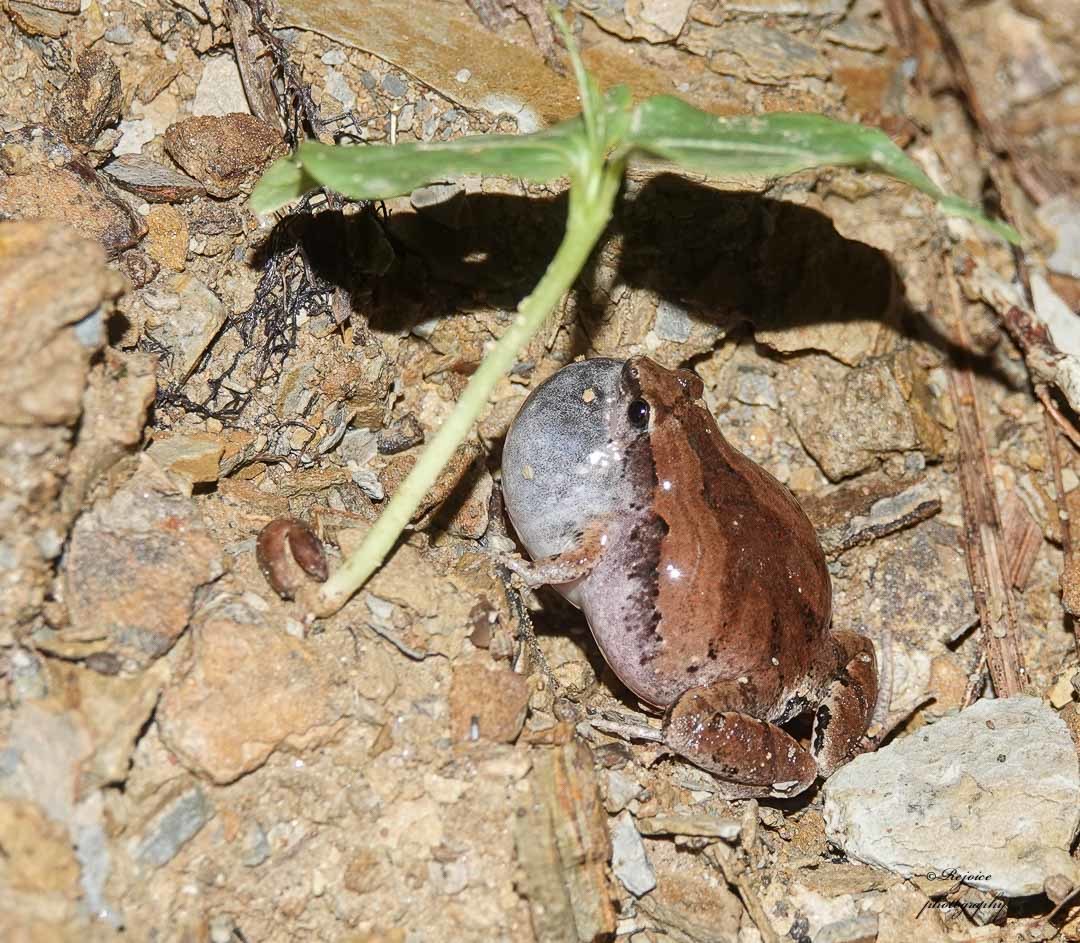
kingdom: Animalia
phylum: Chordata
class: Amphibia
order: Anura
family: Microhylidae
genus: Microhyla
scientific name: Microhyla mymensinghensis
